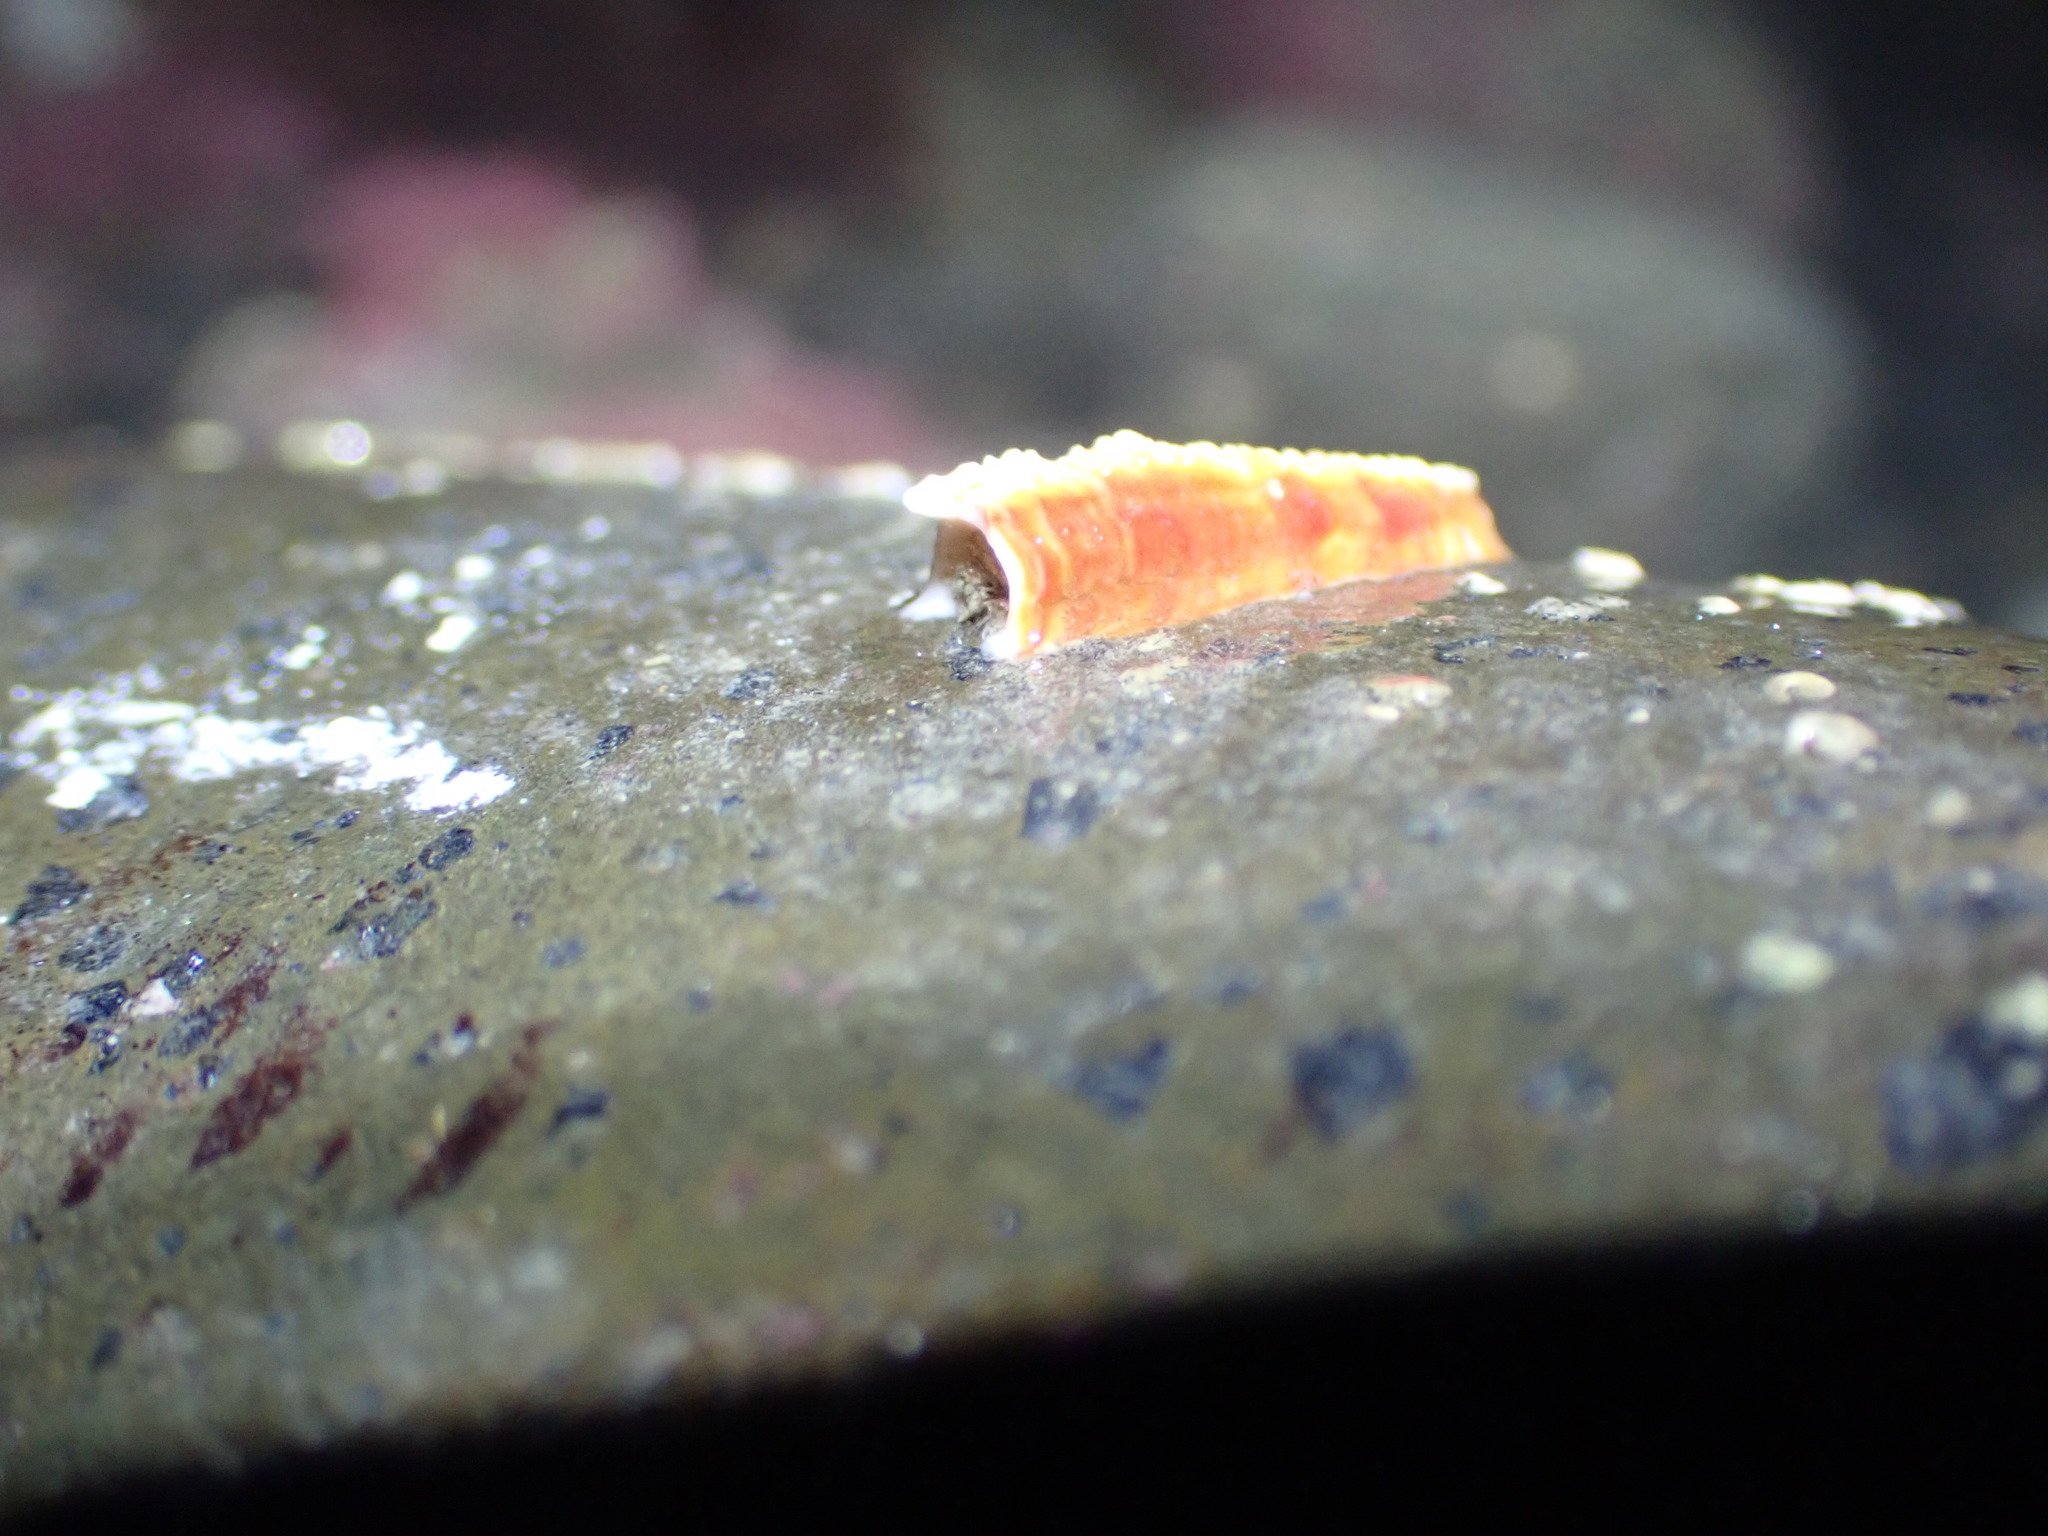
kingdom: Animalia
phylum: Annelida
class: Polychaeta
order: Sabellida
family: Serpulidae
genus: Galeolaria
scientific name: Galeolaria hystrix
